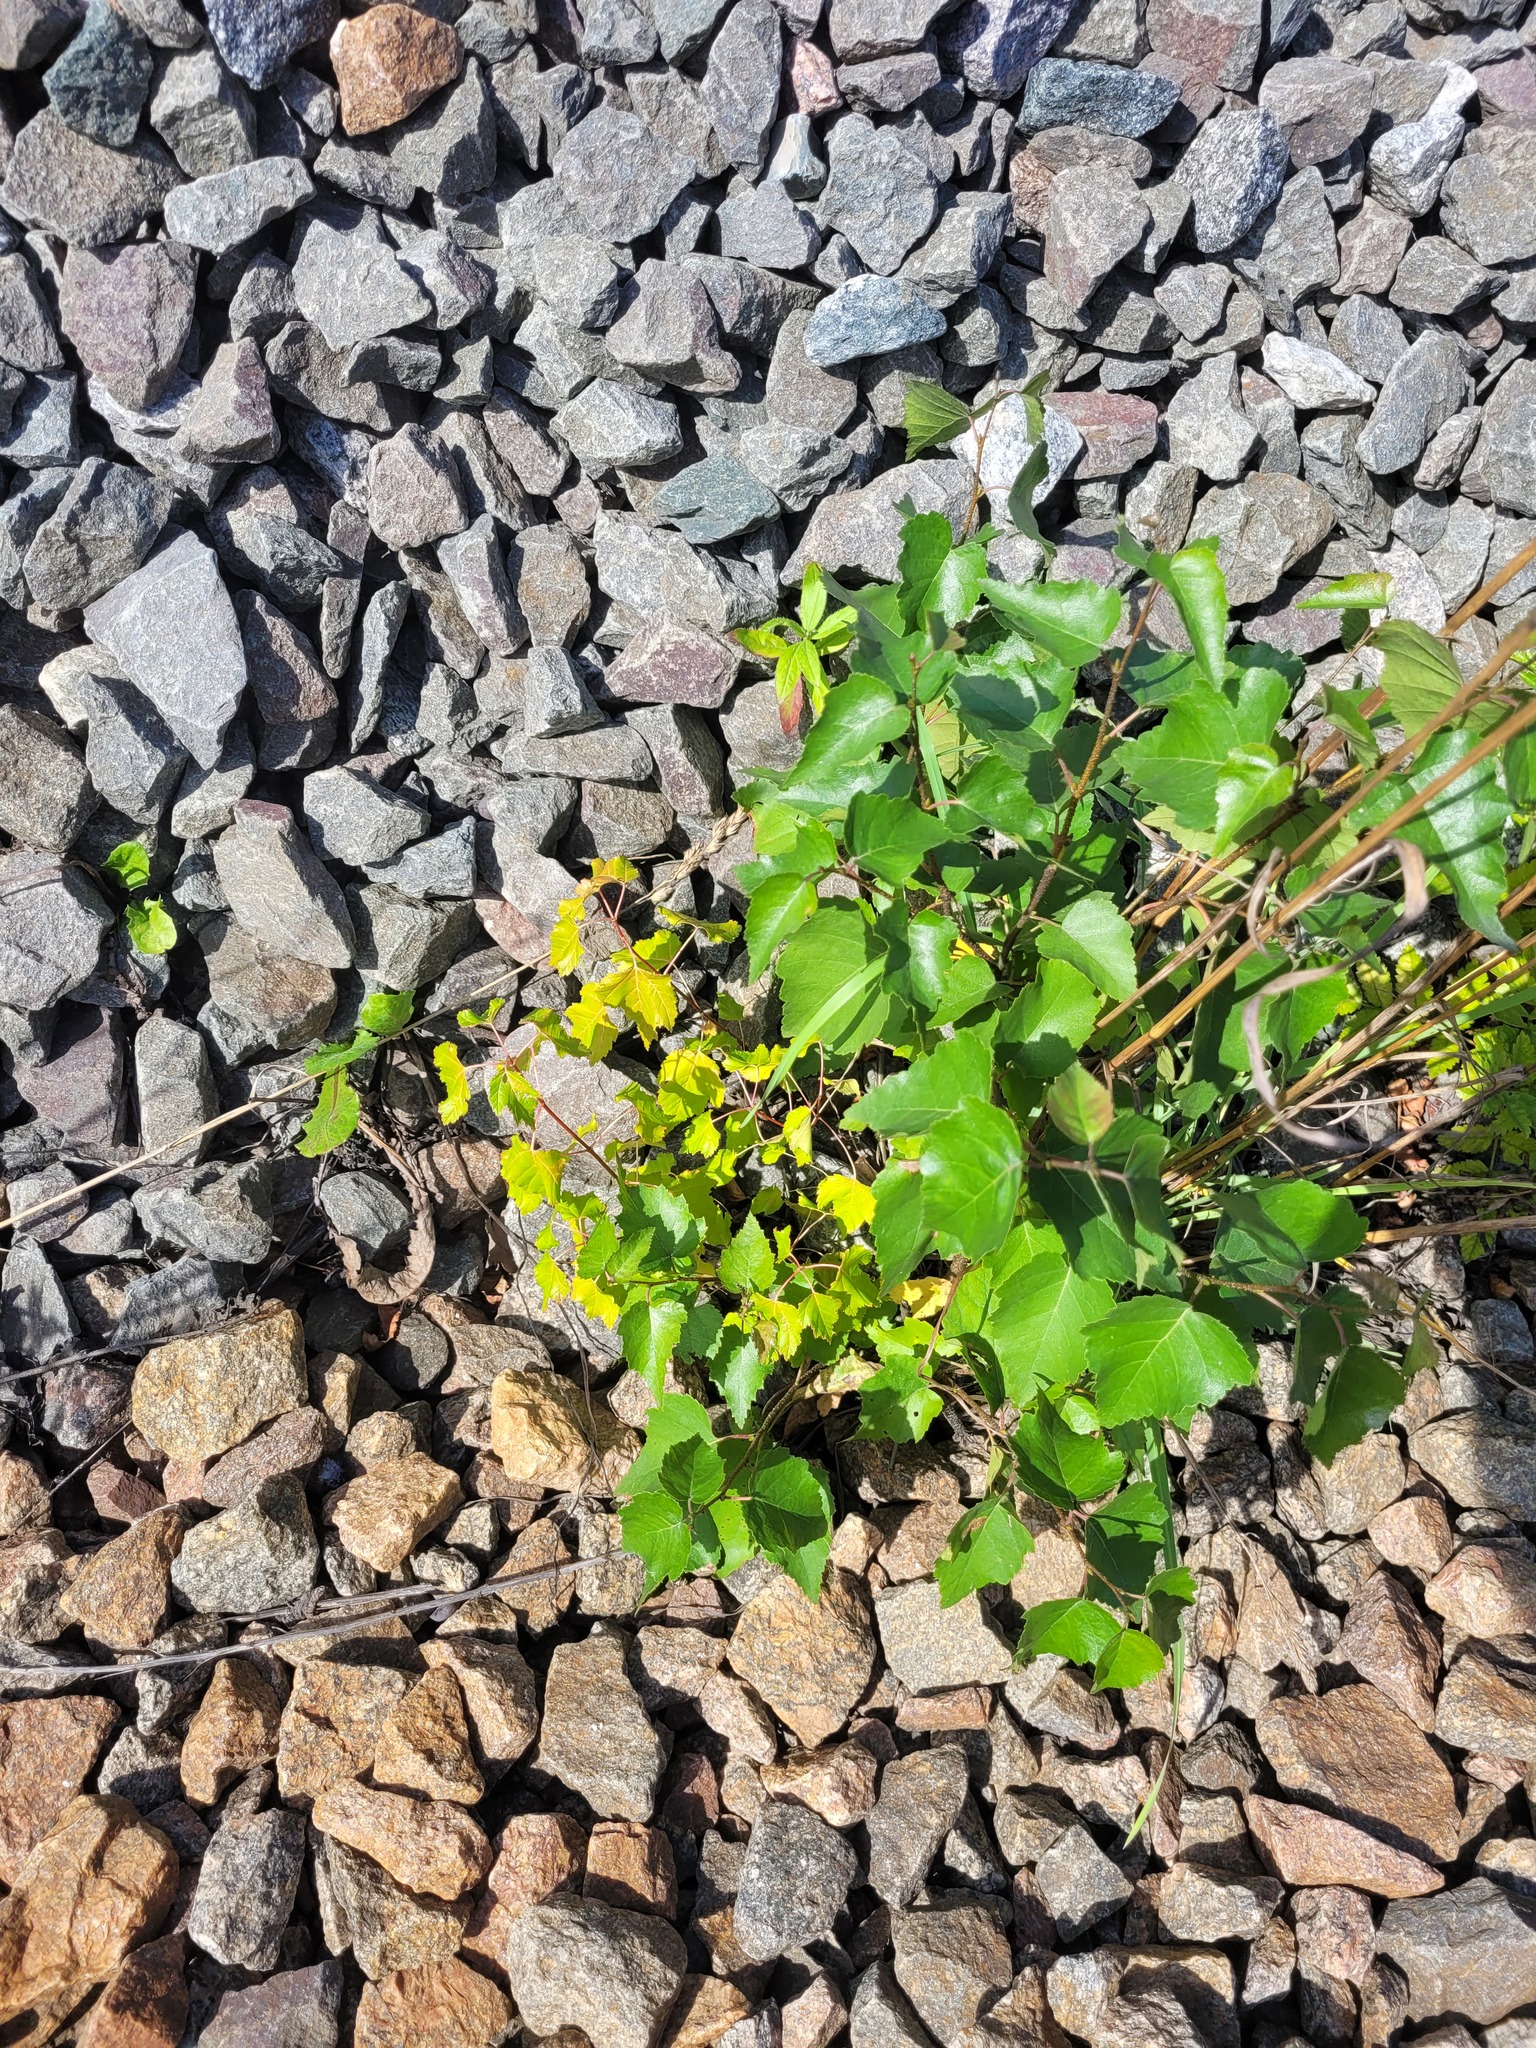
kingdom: Plantae
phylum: Tracheophyta
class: Magnoliopsida
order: Fagales
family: Betulaceae
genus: Betula
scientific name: Betula pendula
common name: Silver birch
